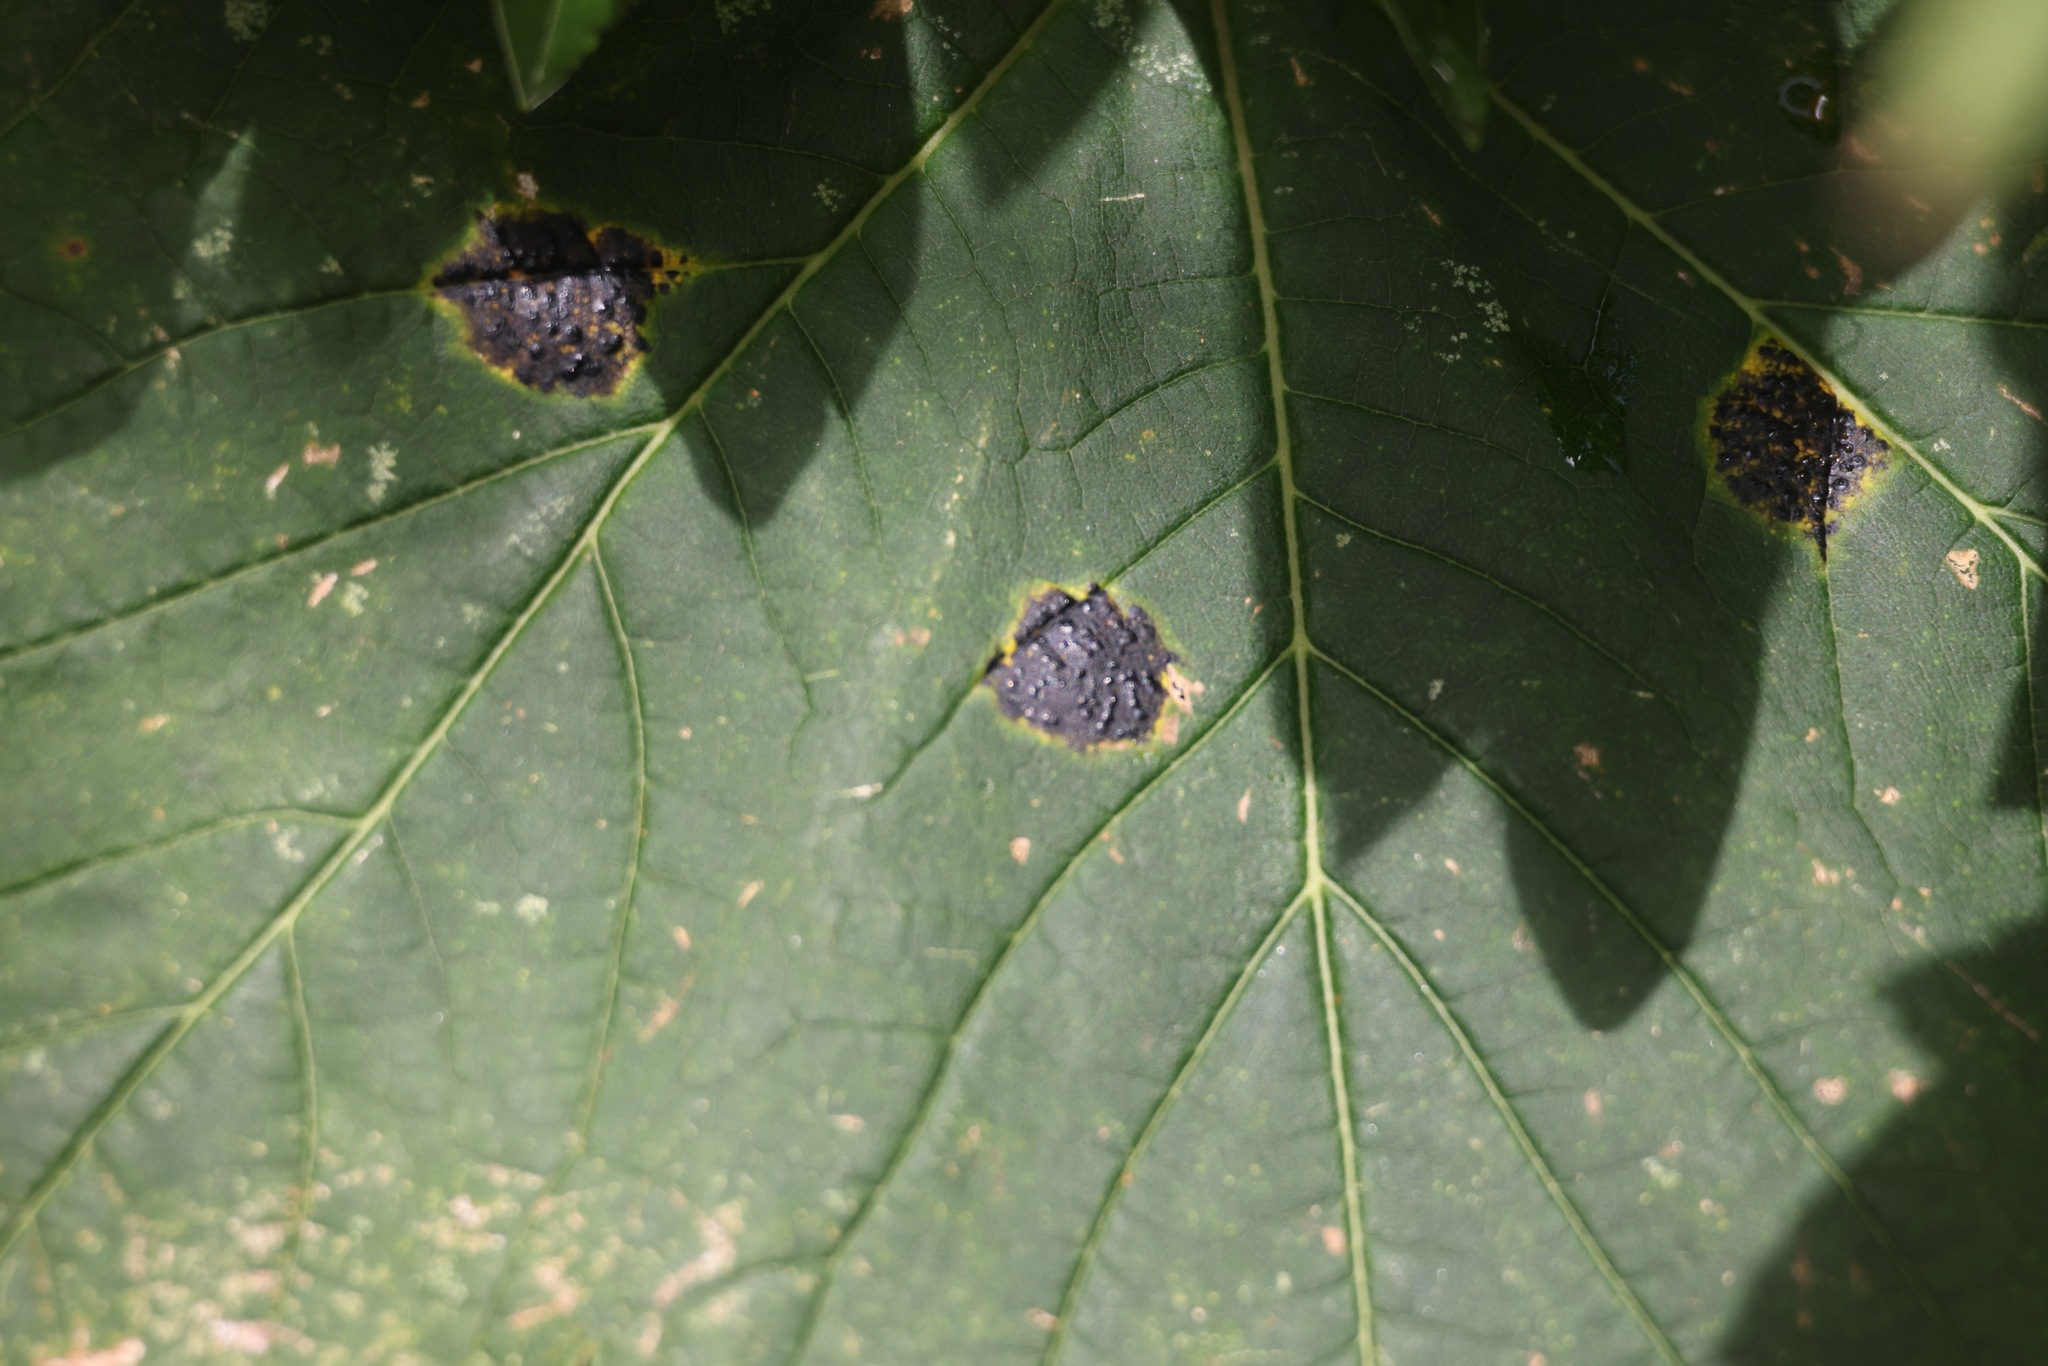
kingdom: Fungi
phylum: Ascomycota
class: Leotiomycetes
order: Rhytismatales
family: Rhytismataceae
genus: Rhytisma
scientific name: Rhytisma acerinum
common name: European tar spot
